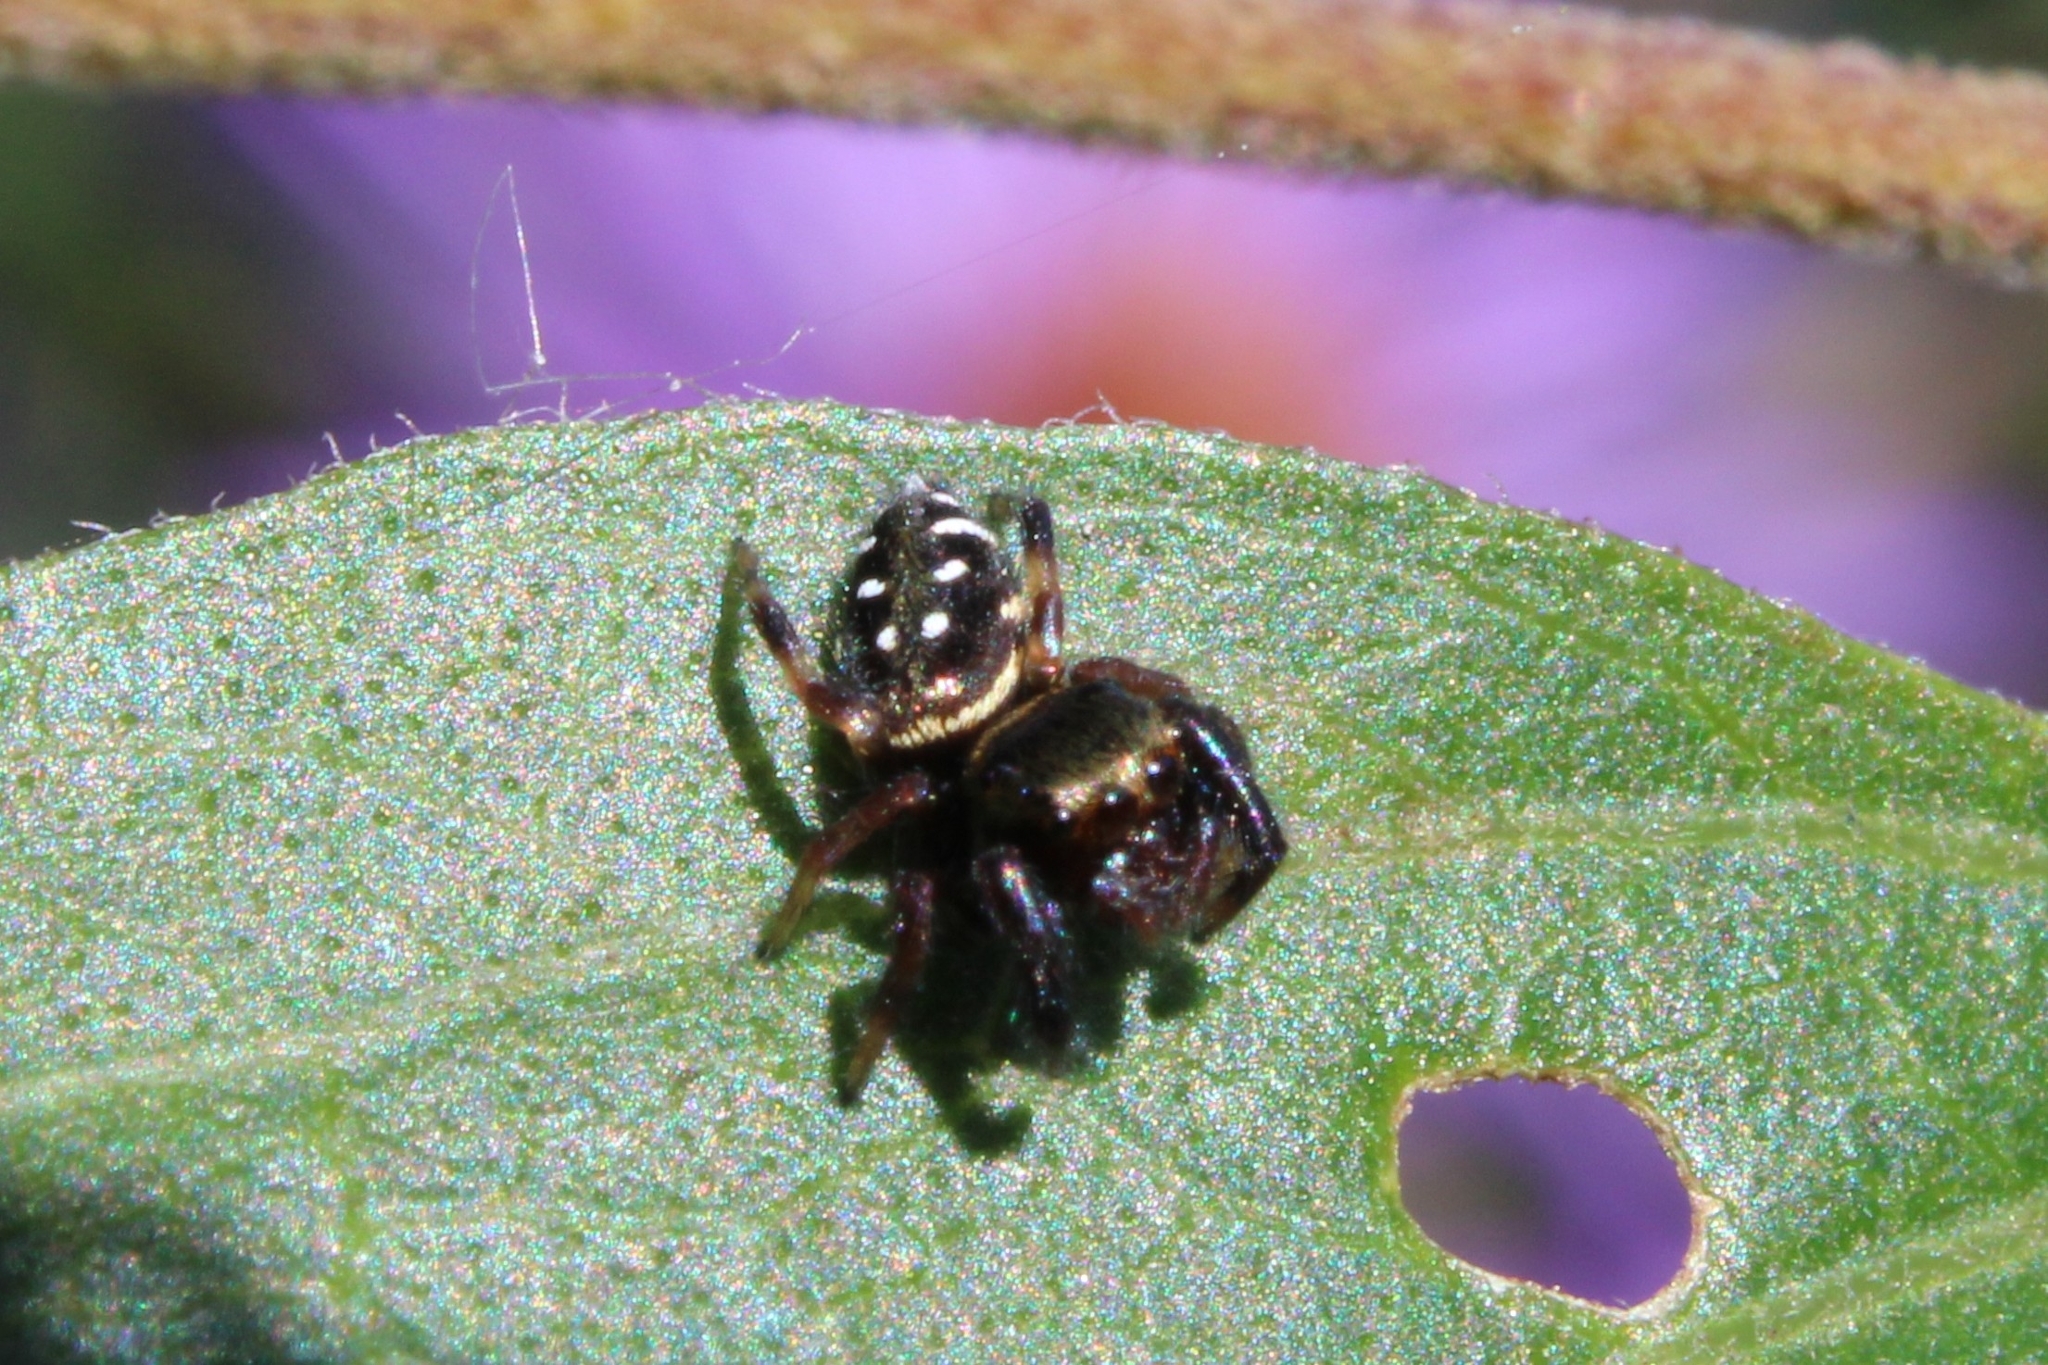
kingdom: Animalia
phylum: Arthropoda
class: Arachnida
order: Araneae
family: Salticidae
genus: Paraphidippus
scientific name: Paraphidippus aurantius
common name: Jumping spiders
